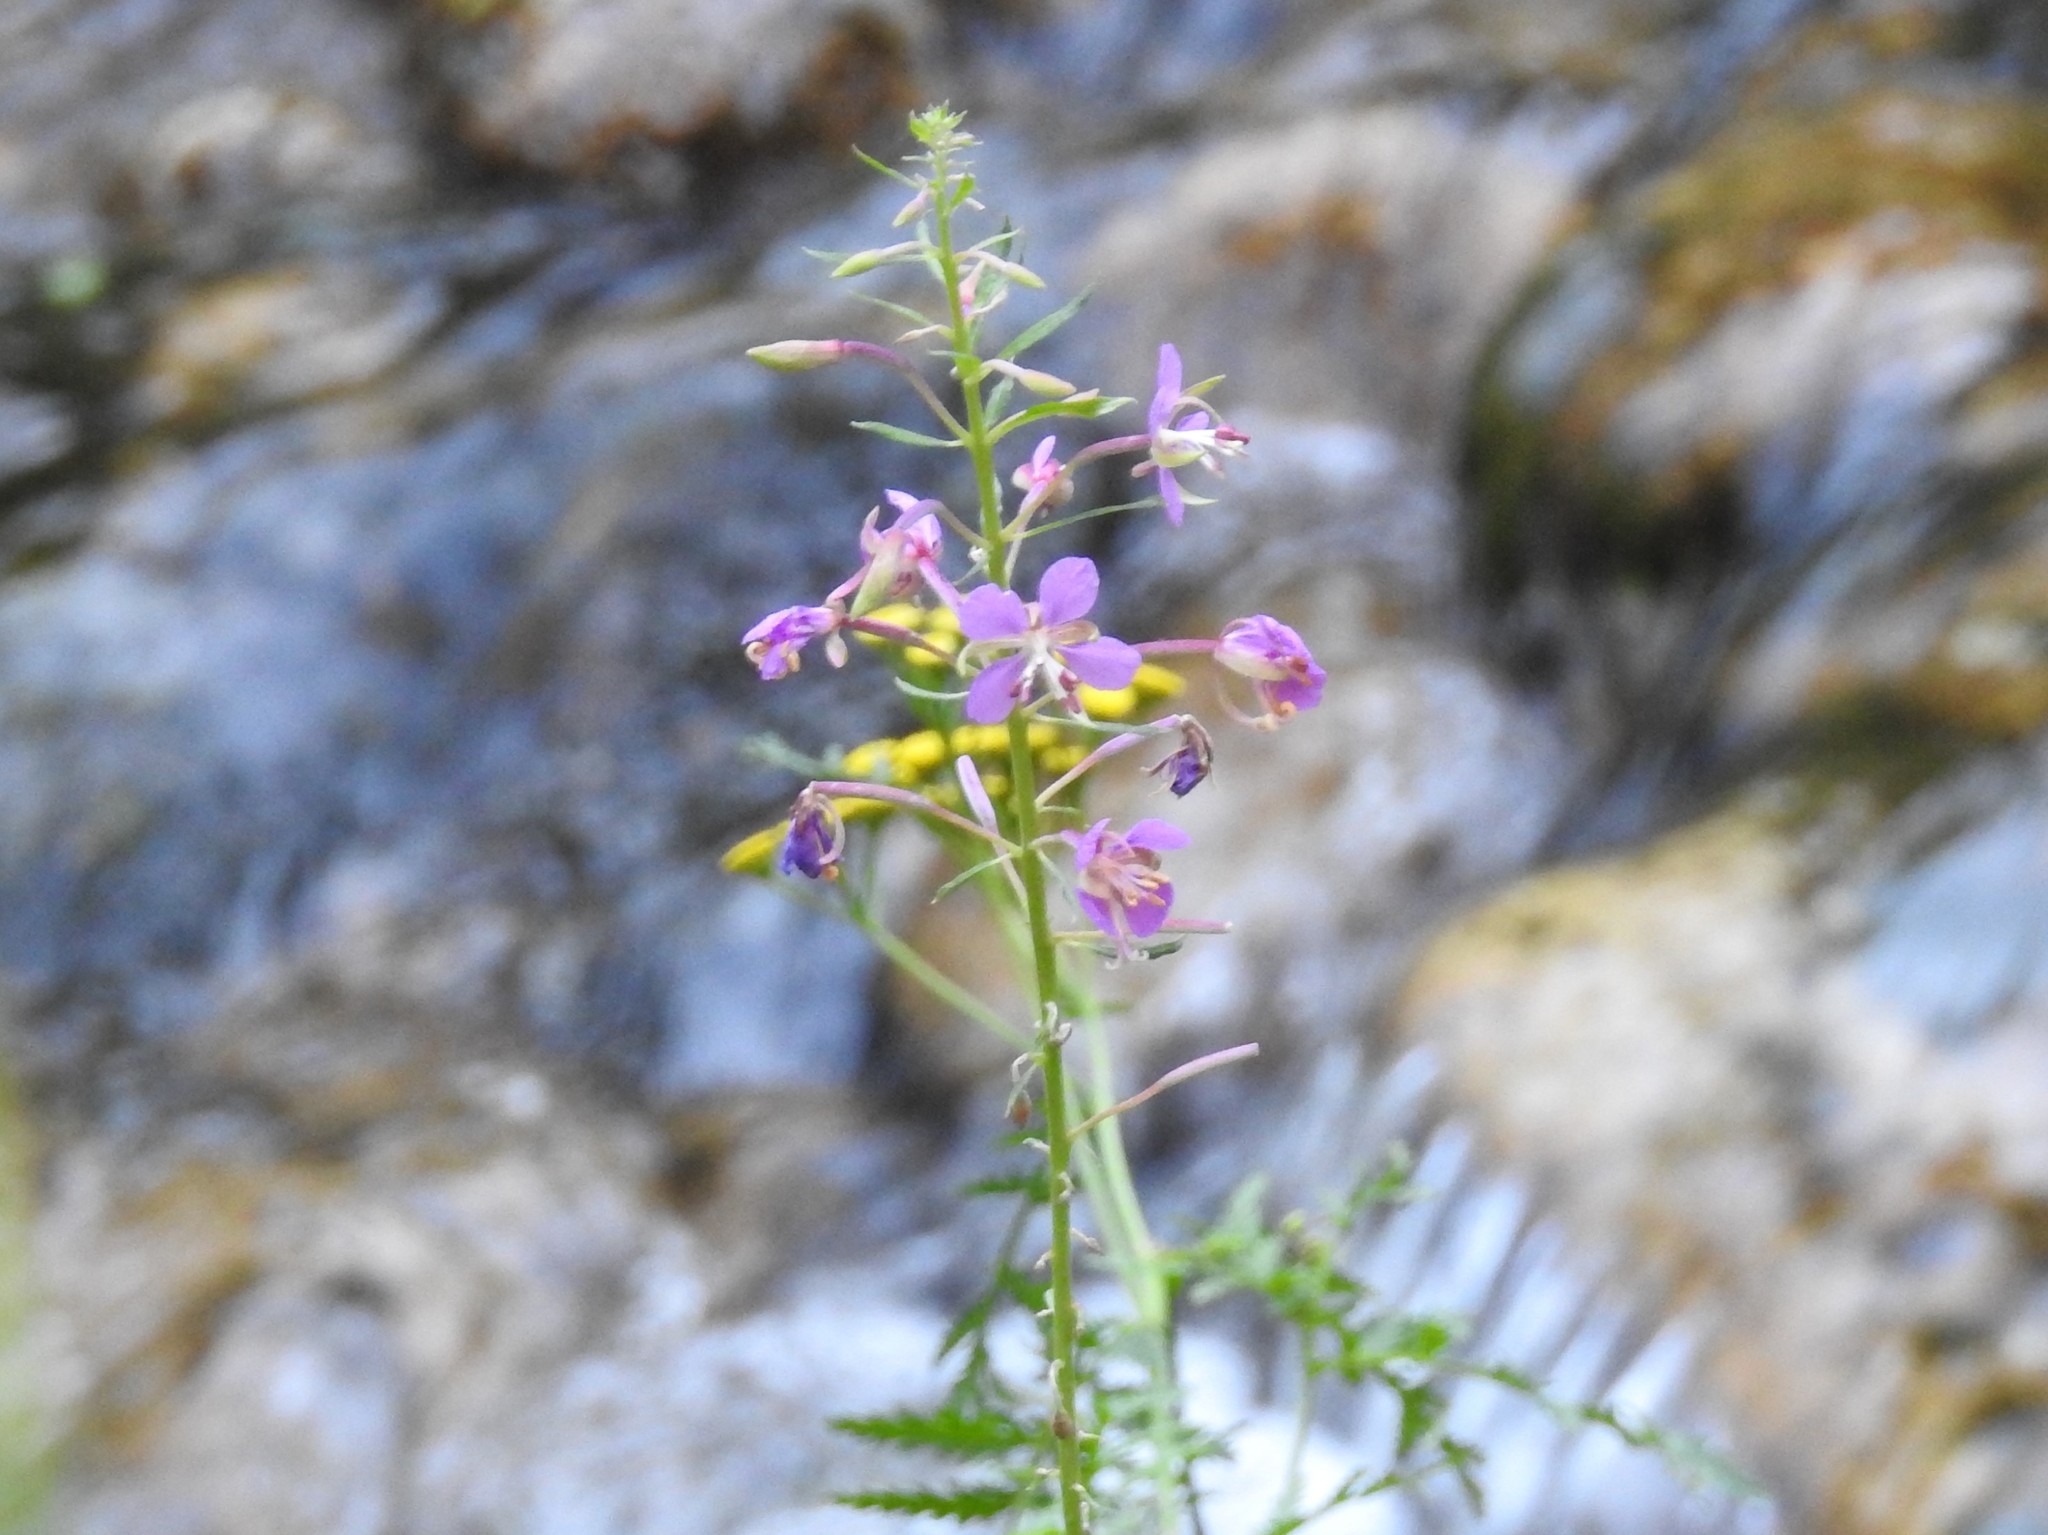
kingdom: Plantae
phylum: Tracheophyta
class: Magnoliopsida
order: Myrtales
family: Onagraceae
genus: Chamaenerion
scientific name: Chamaenerion angustifolium
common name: Fireweed
